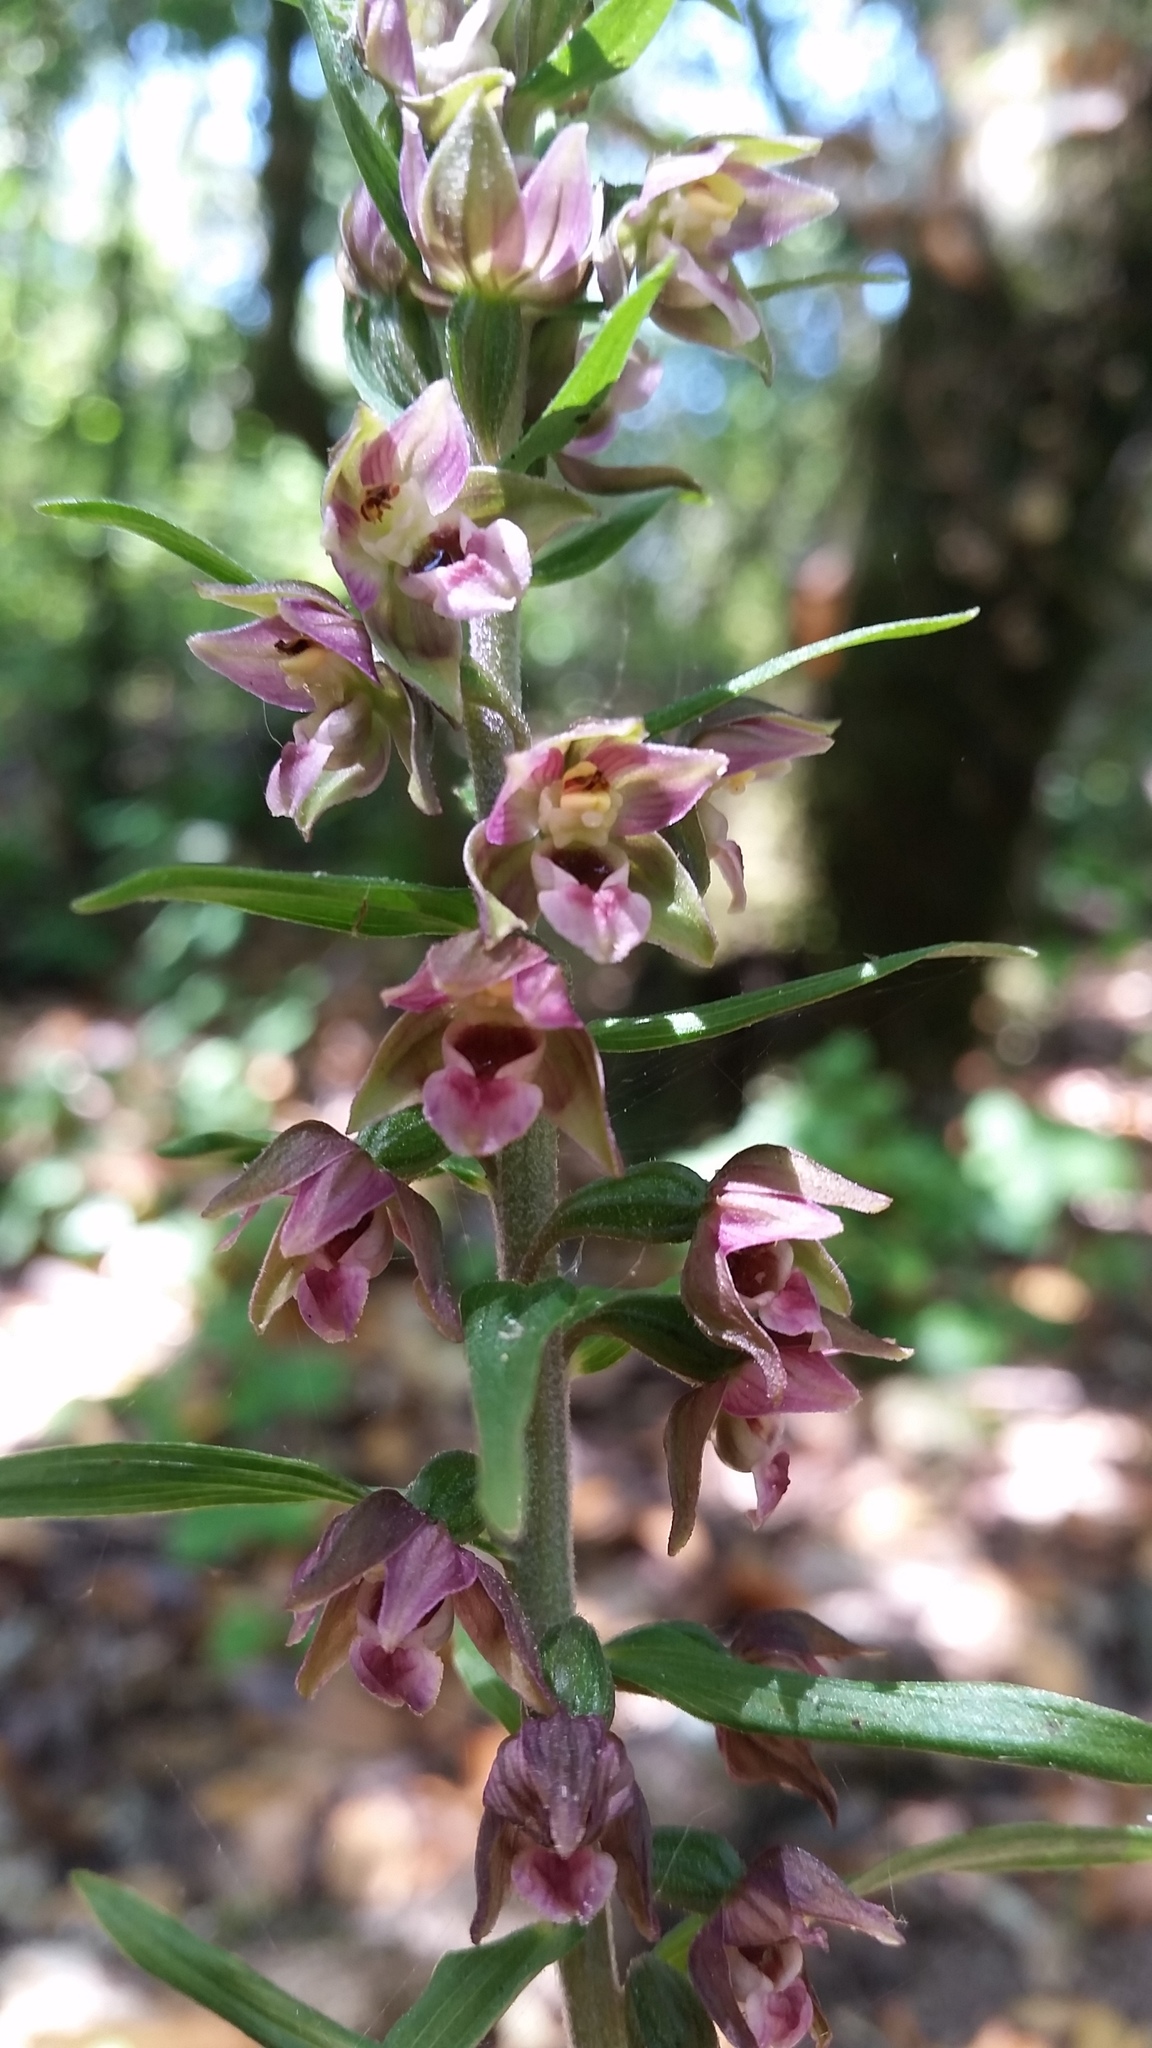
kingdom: Plantae
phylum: Tracheophyta
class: Liliopsida
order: Asparagales
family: Orchidaceae
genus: Epipactis
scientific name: Epipactis helleborine
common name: Broad-leaved helleborine
